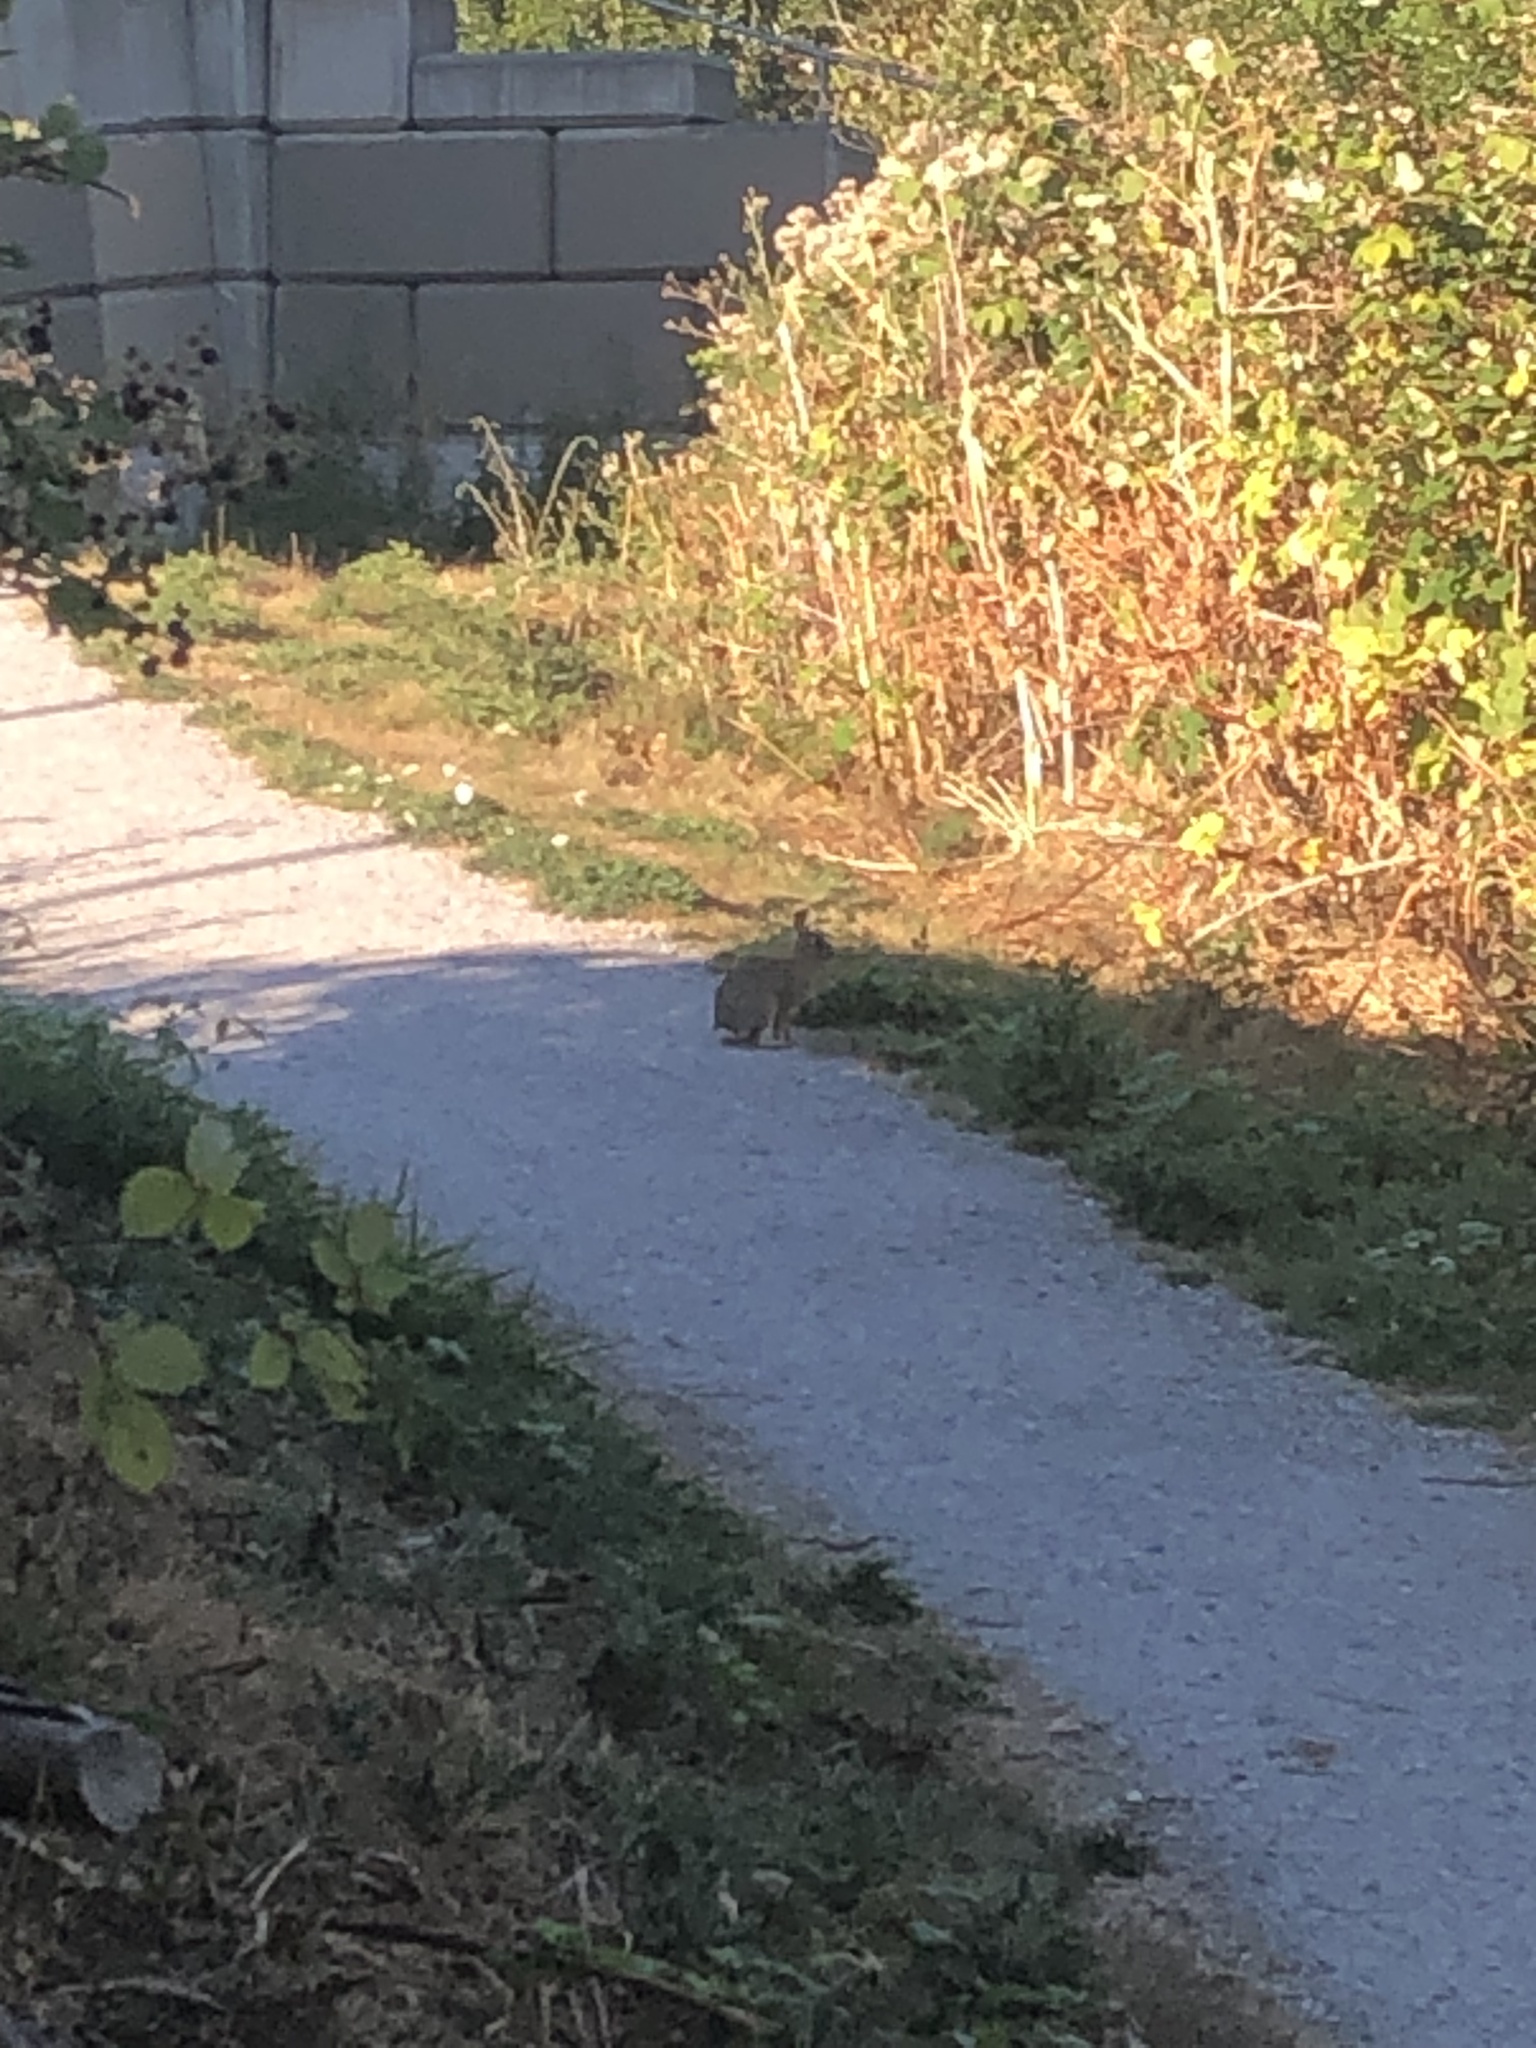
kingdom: Animalia
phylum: Chordata
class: Mammalia
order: Lagomorpha
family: Leporidae
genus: Sylvilagus
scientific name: Sylvilagus floridanus
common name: Eastern cottontail
